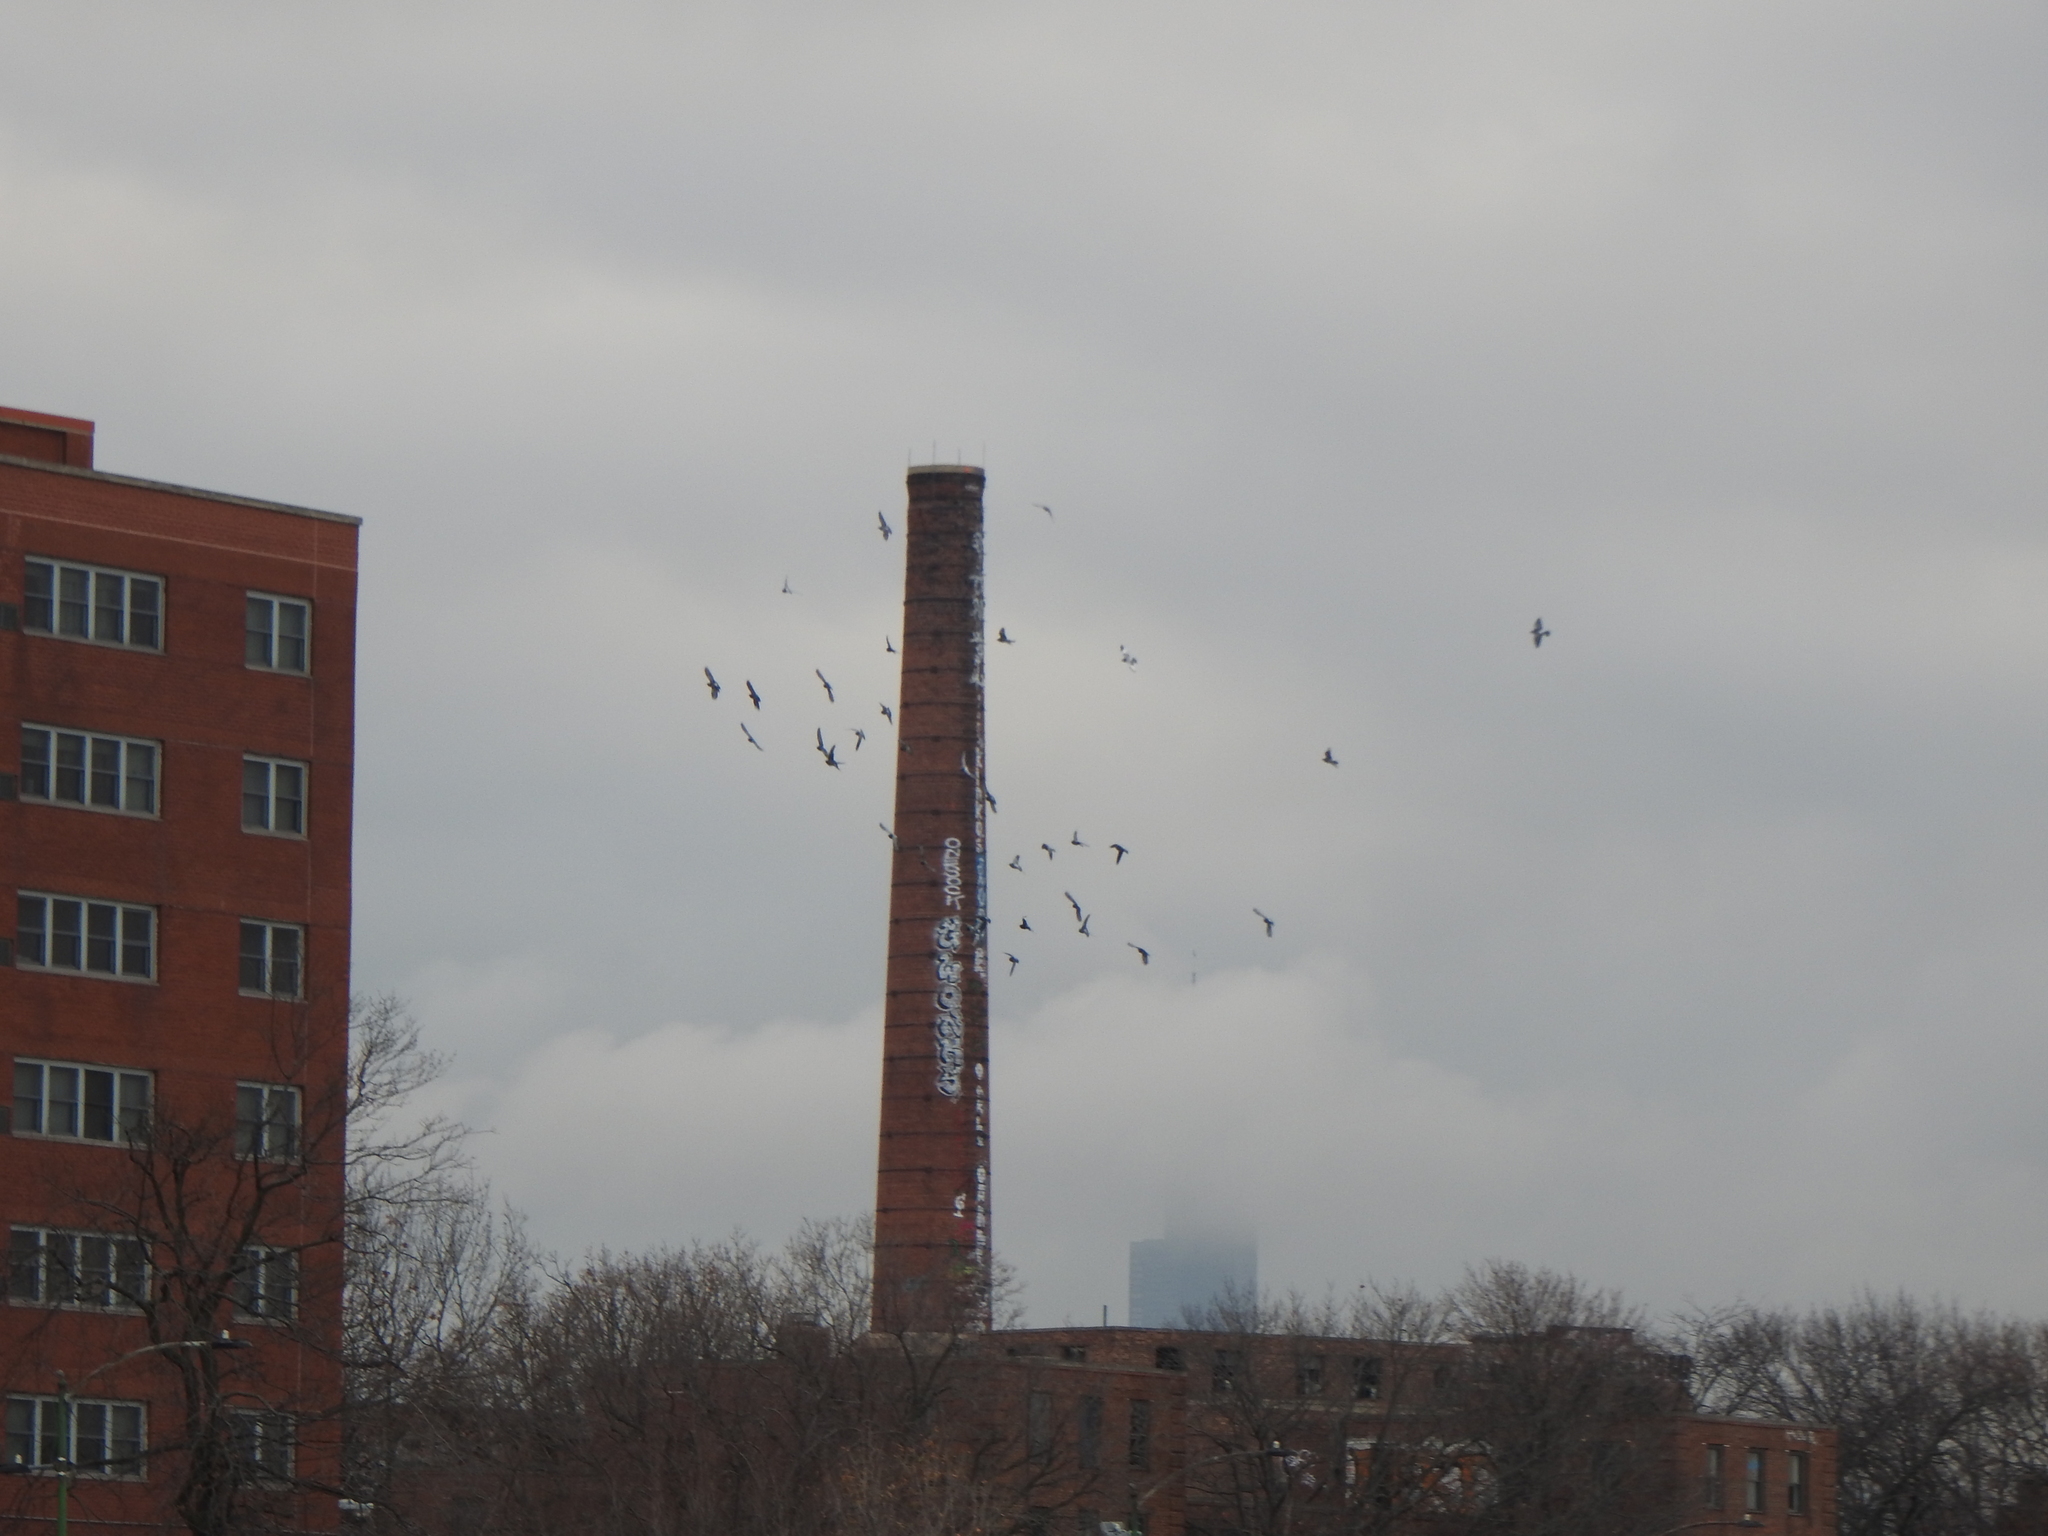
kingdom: Animalia
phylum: Chordata
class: Aves
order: Columbiformes
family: Columbidae
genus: Columba
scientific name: Columba livia
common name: Rock pigeon
